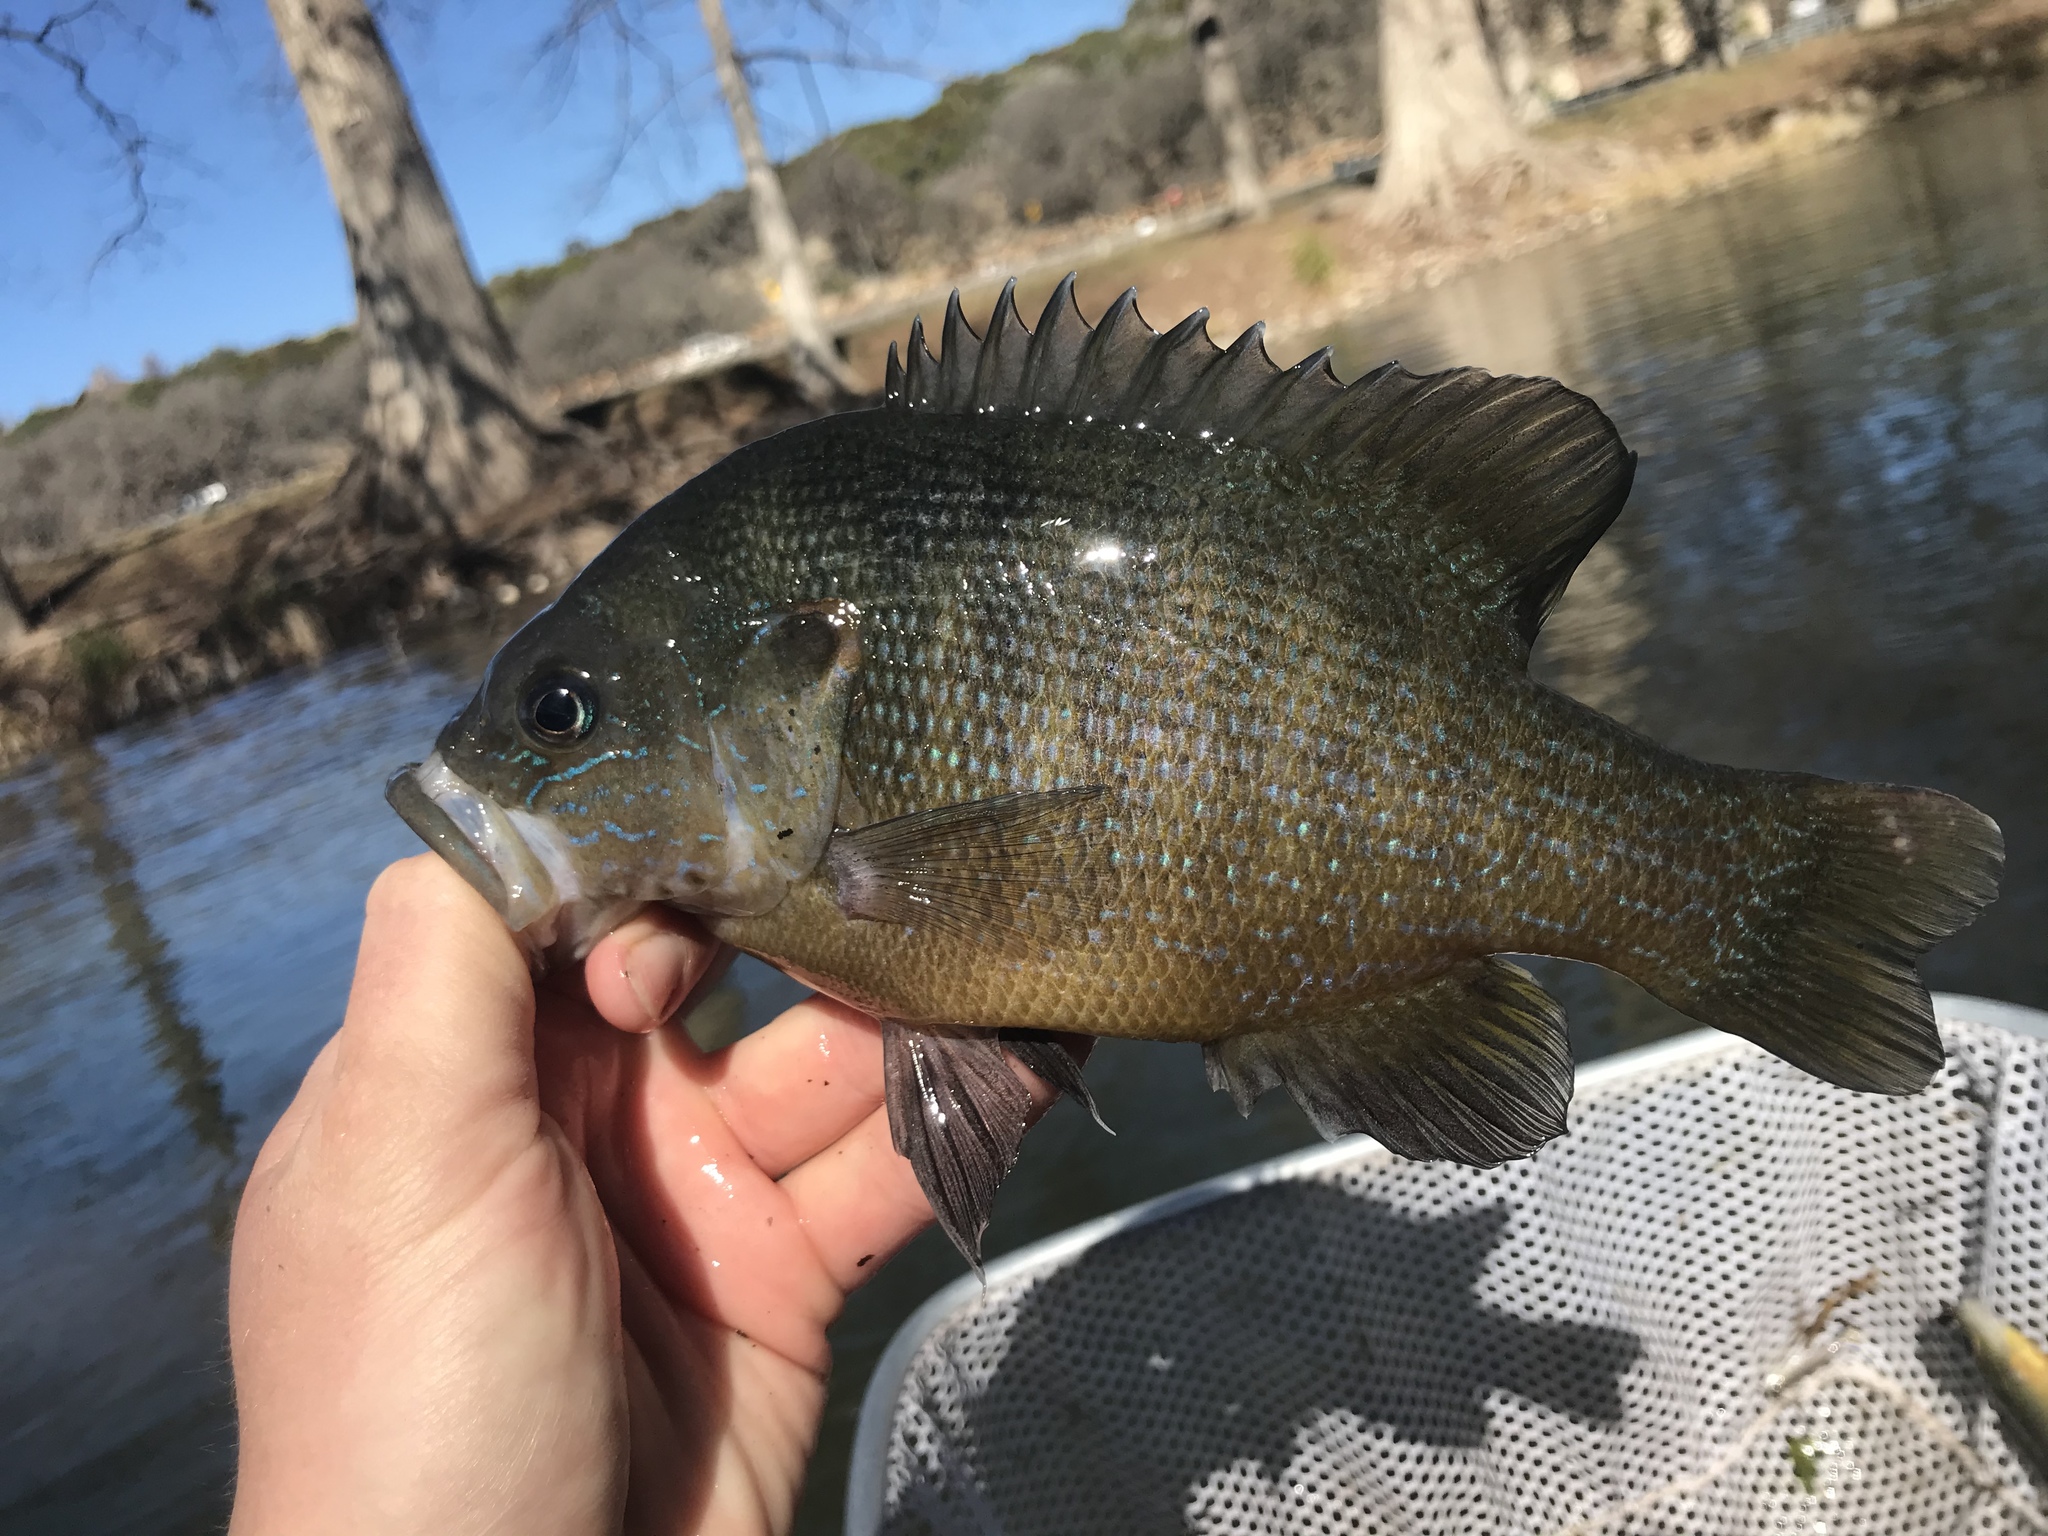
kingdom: Animalia
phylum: Chordata
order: Perciformes
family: Centrarchidae
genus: Lepomis
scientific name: Lepomis cyanellus
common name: Green sunfish
